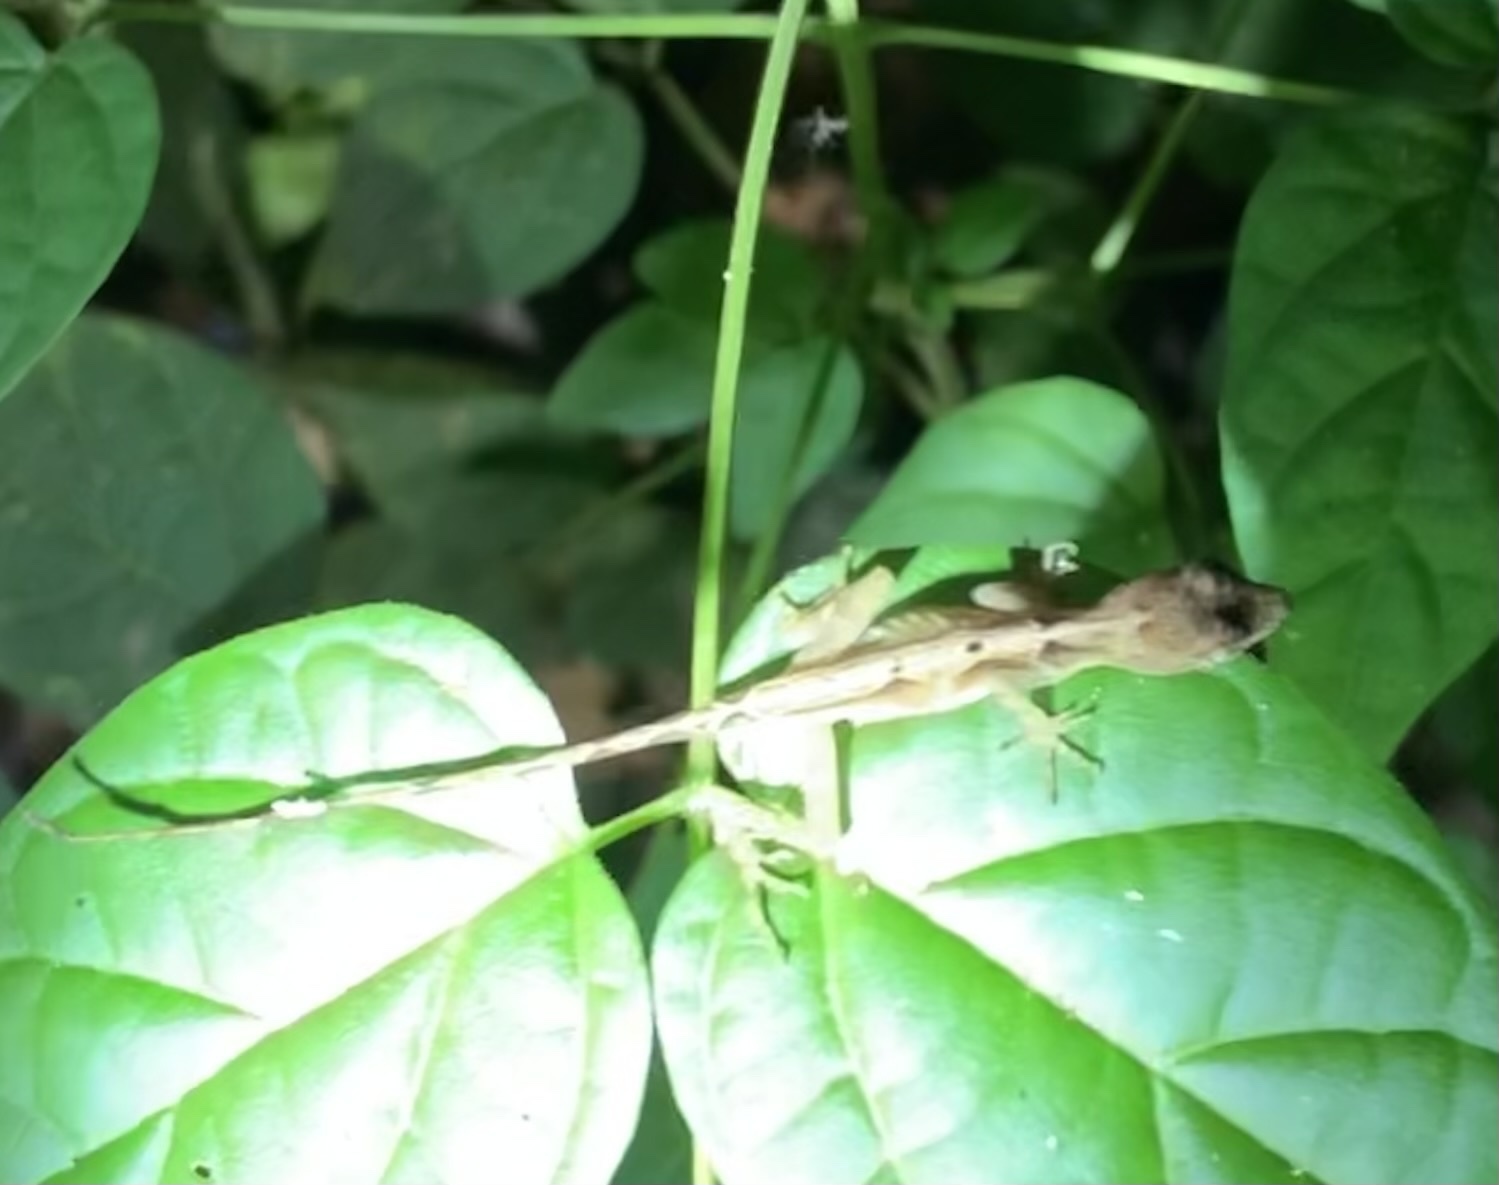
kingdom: Animalia
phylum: Chordata
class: Squamata
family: Dactyloidae
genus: Anolis
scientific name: Anolis limifrons
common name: Border anole
